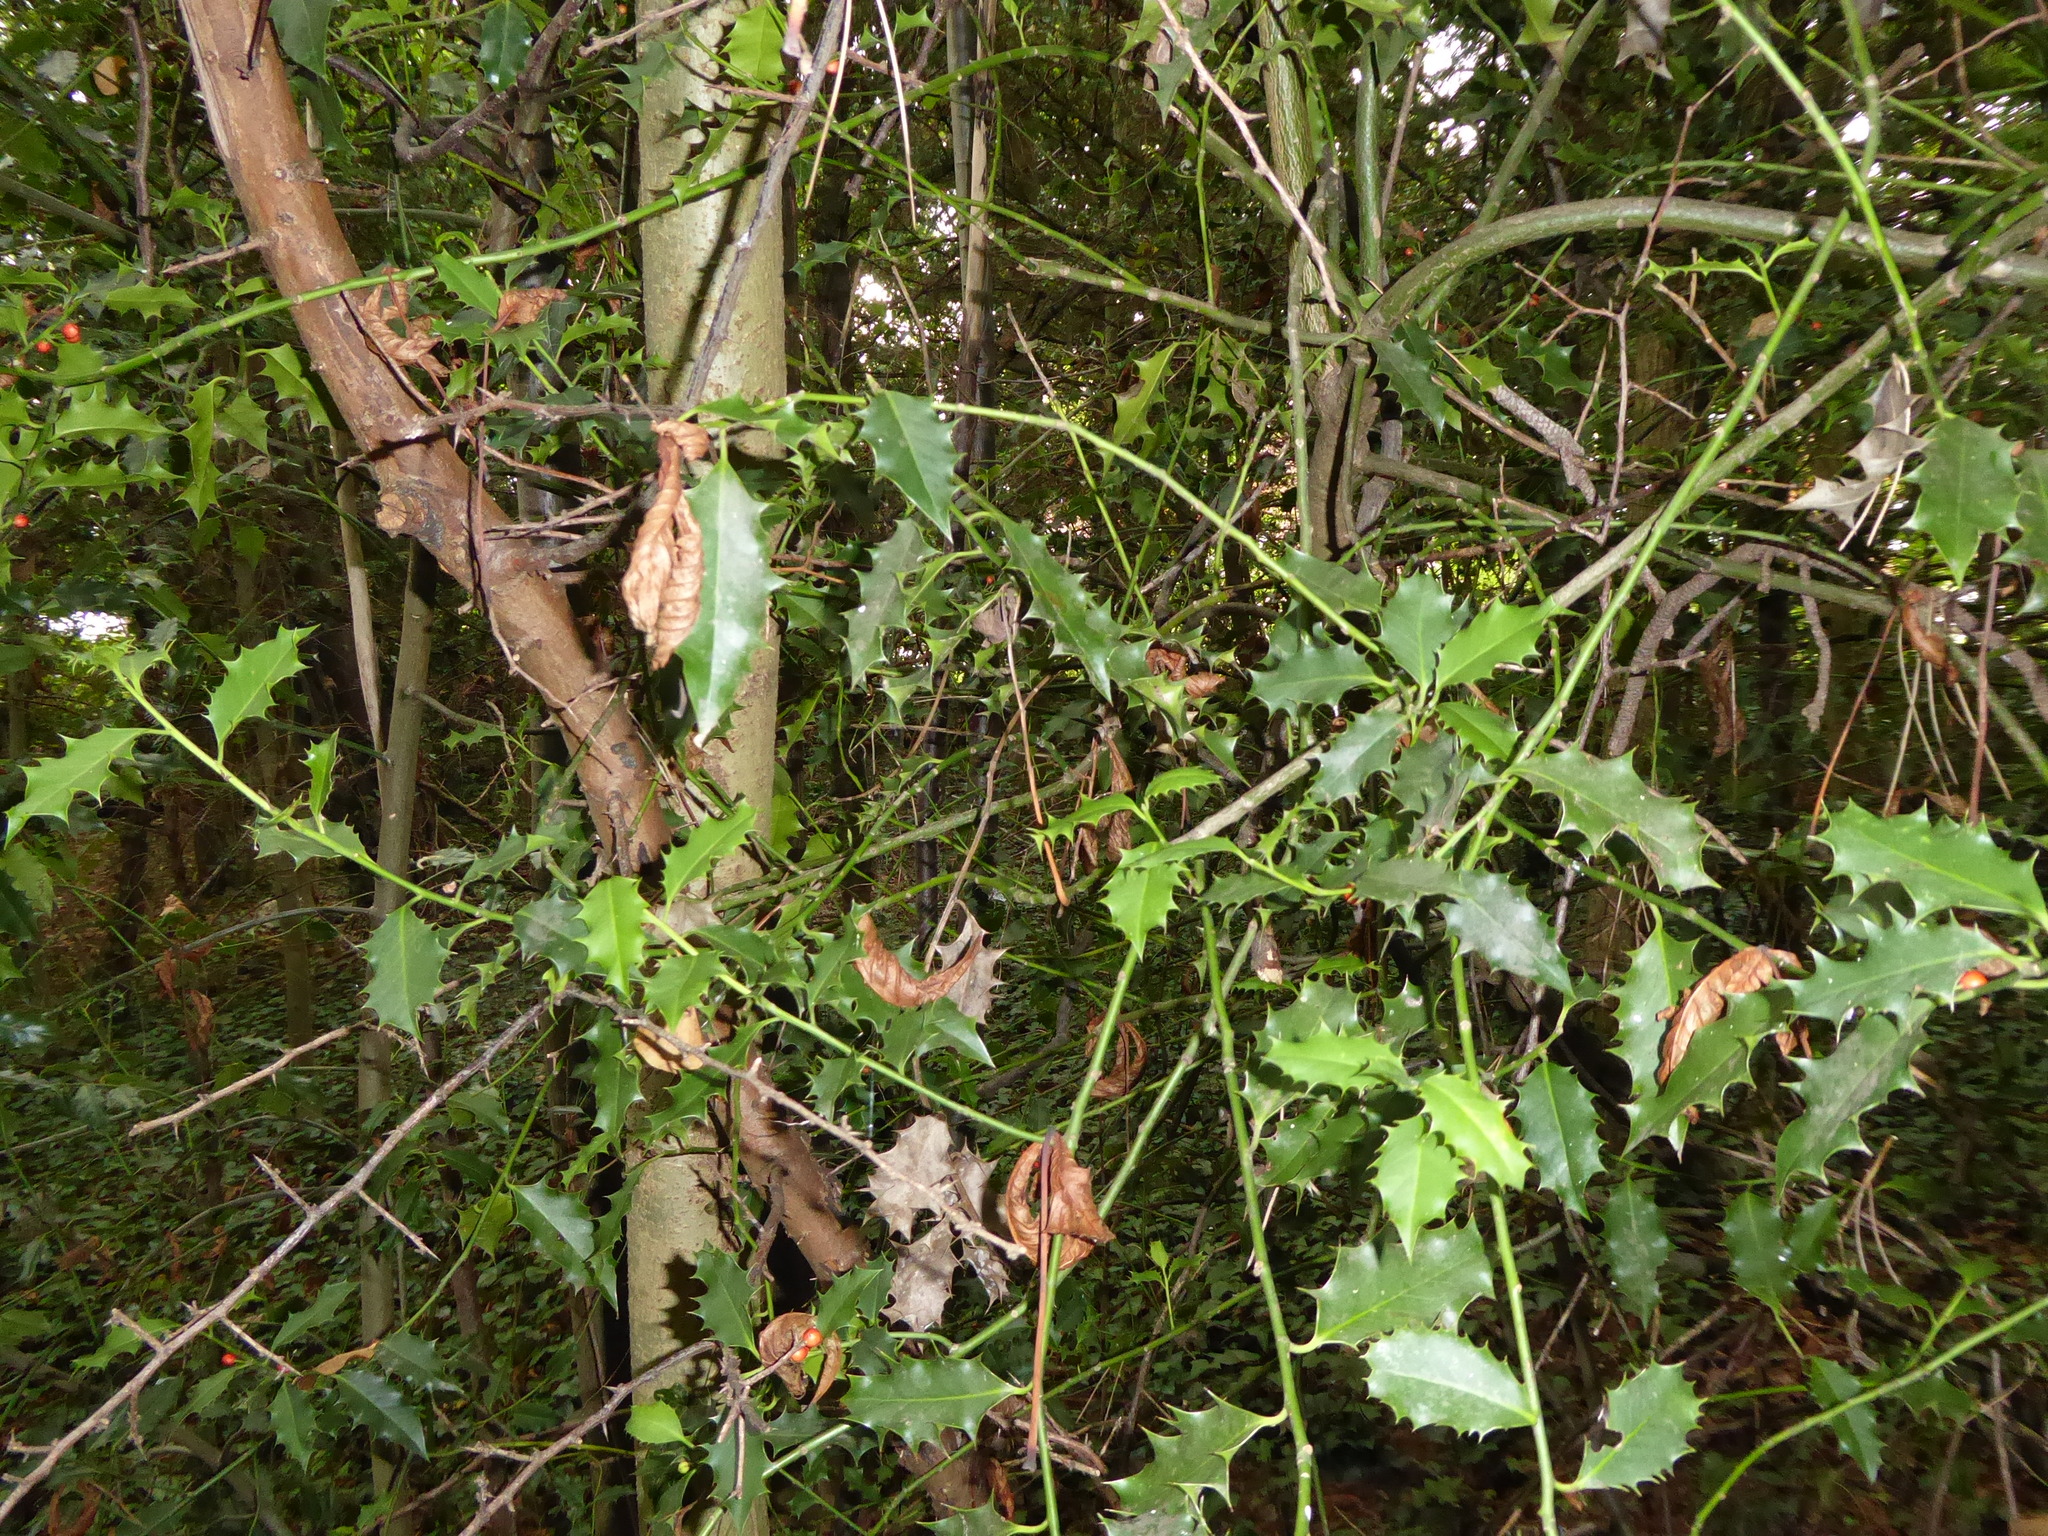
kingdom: Plantae
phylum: Tracheophyta
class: Magnoliopsida
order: Aquifoliales
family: Aquifoliaceae
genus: Ilex
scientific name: Ilex aquifolium
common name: English holly
